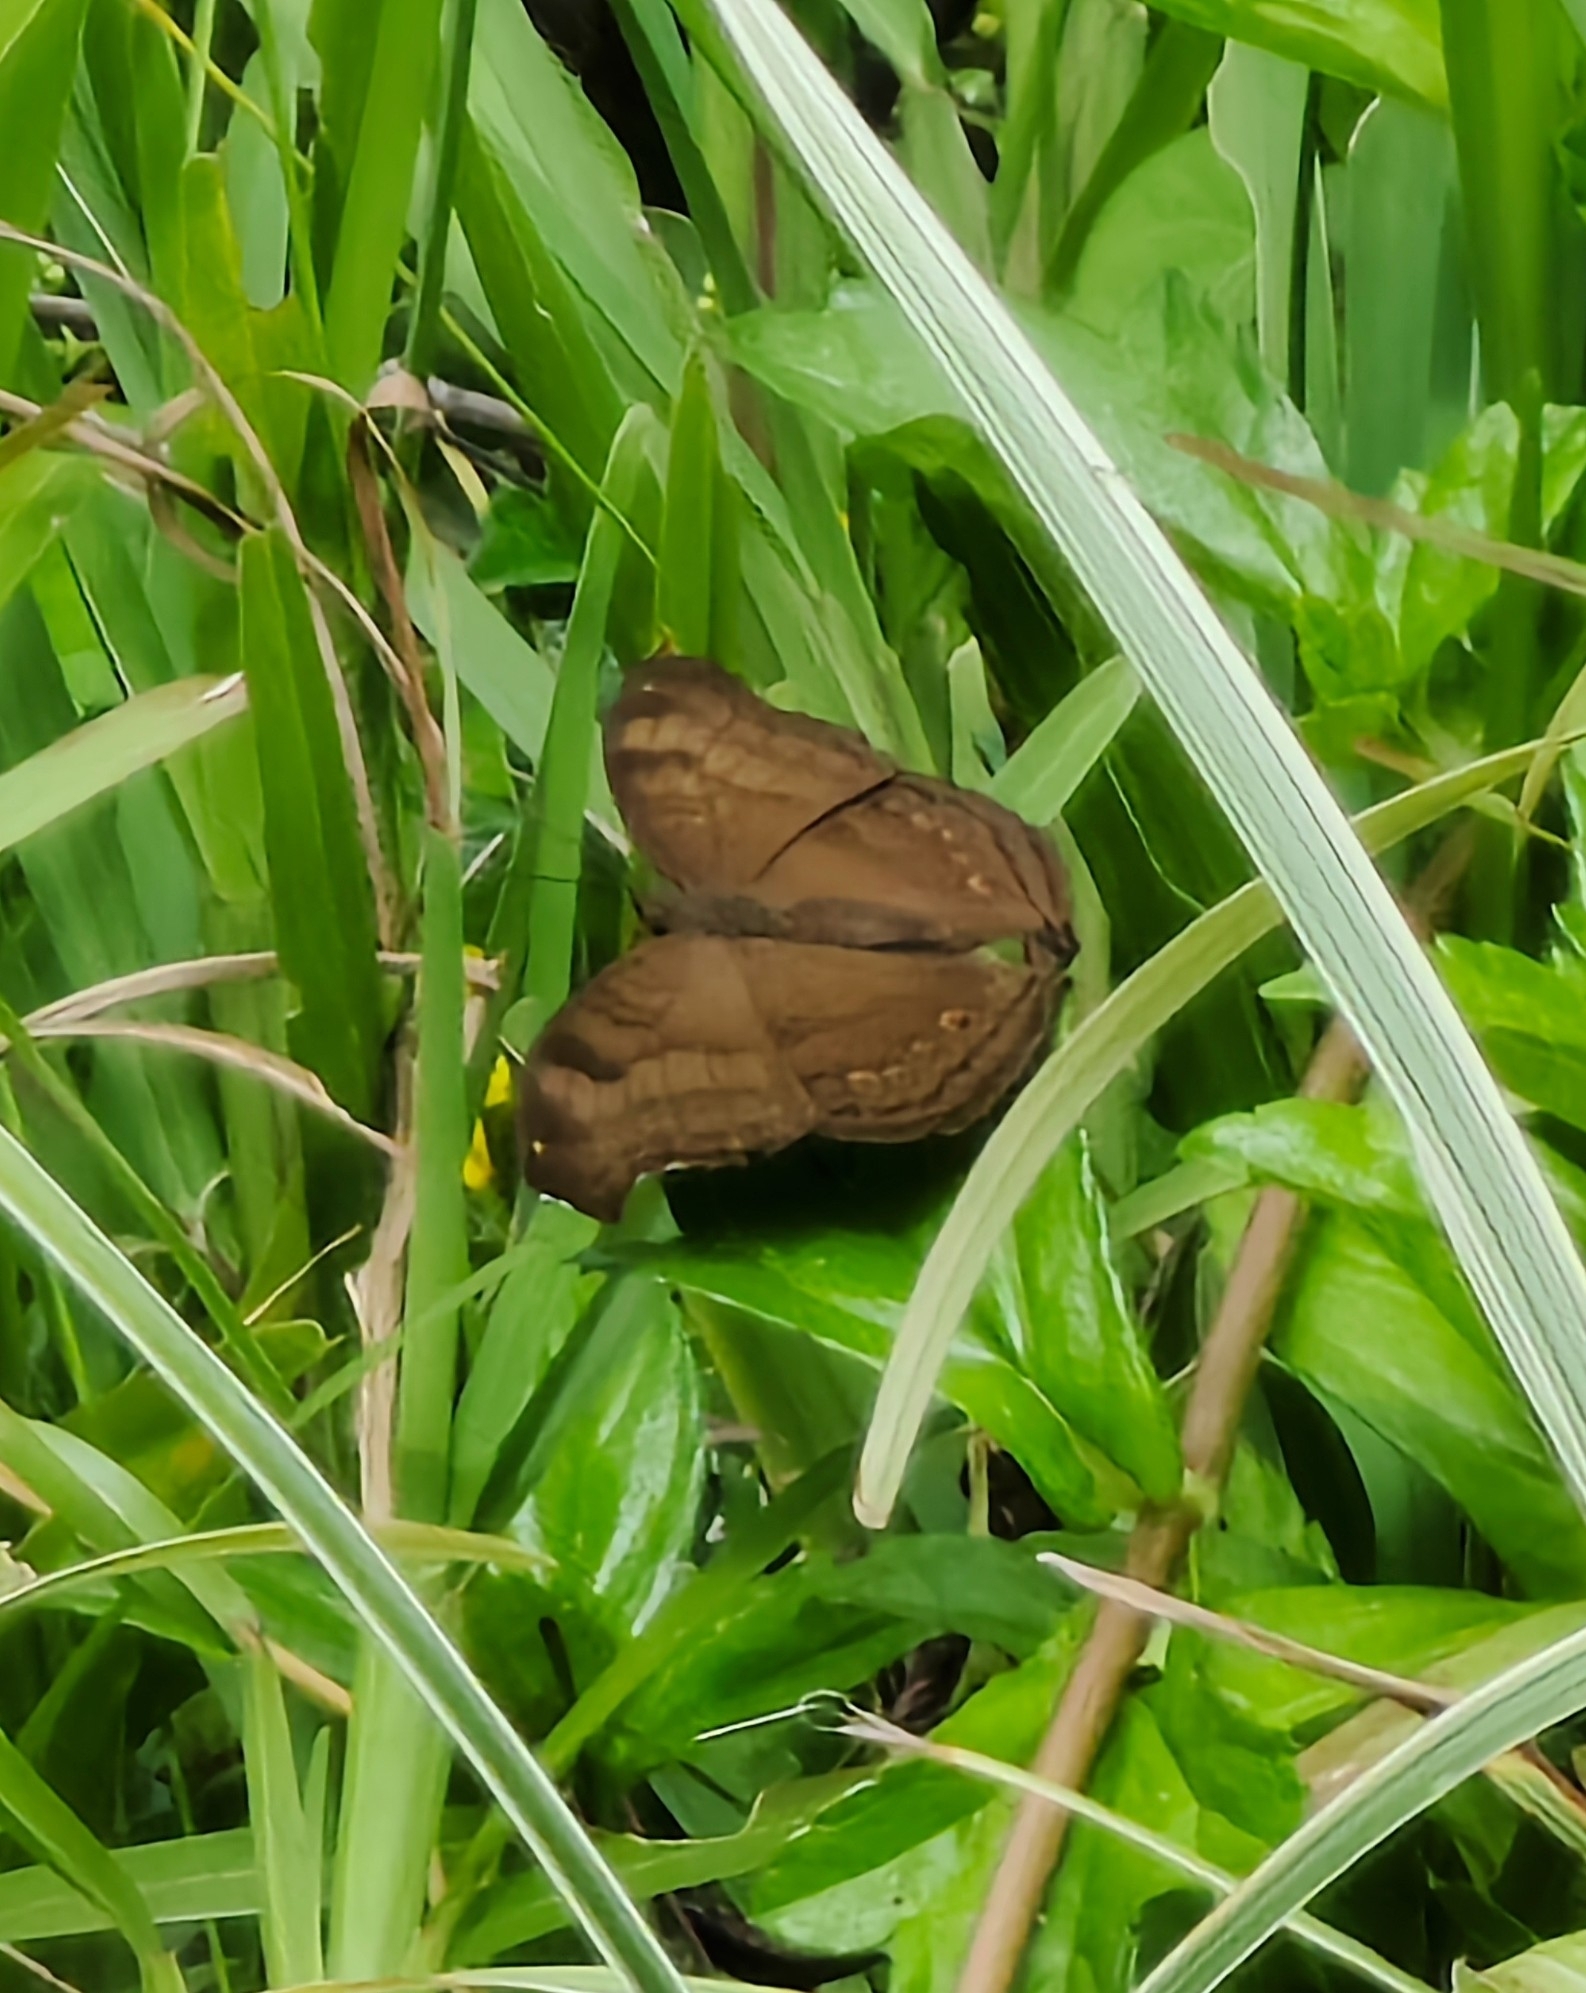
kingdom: Animalia
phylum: Arthropoda
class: Insecta
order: Lepidoptera
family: Nymphalidae
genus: Junonia
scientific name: Junonia iphita
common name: Chocolate pansy
